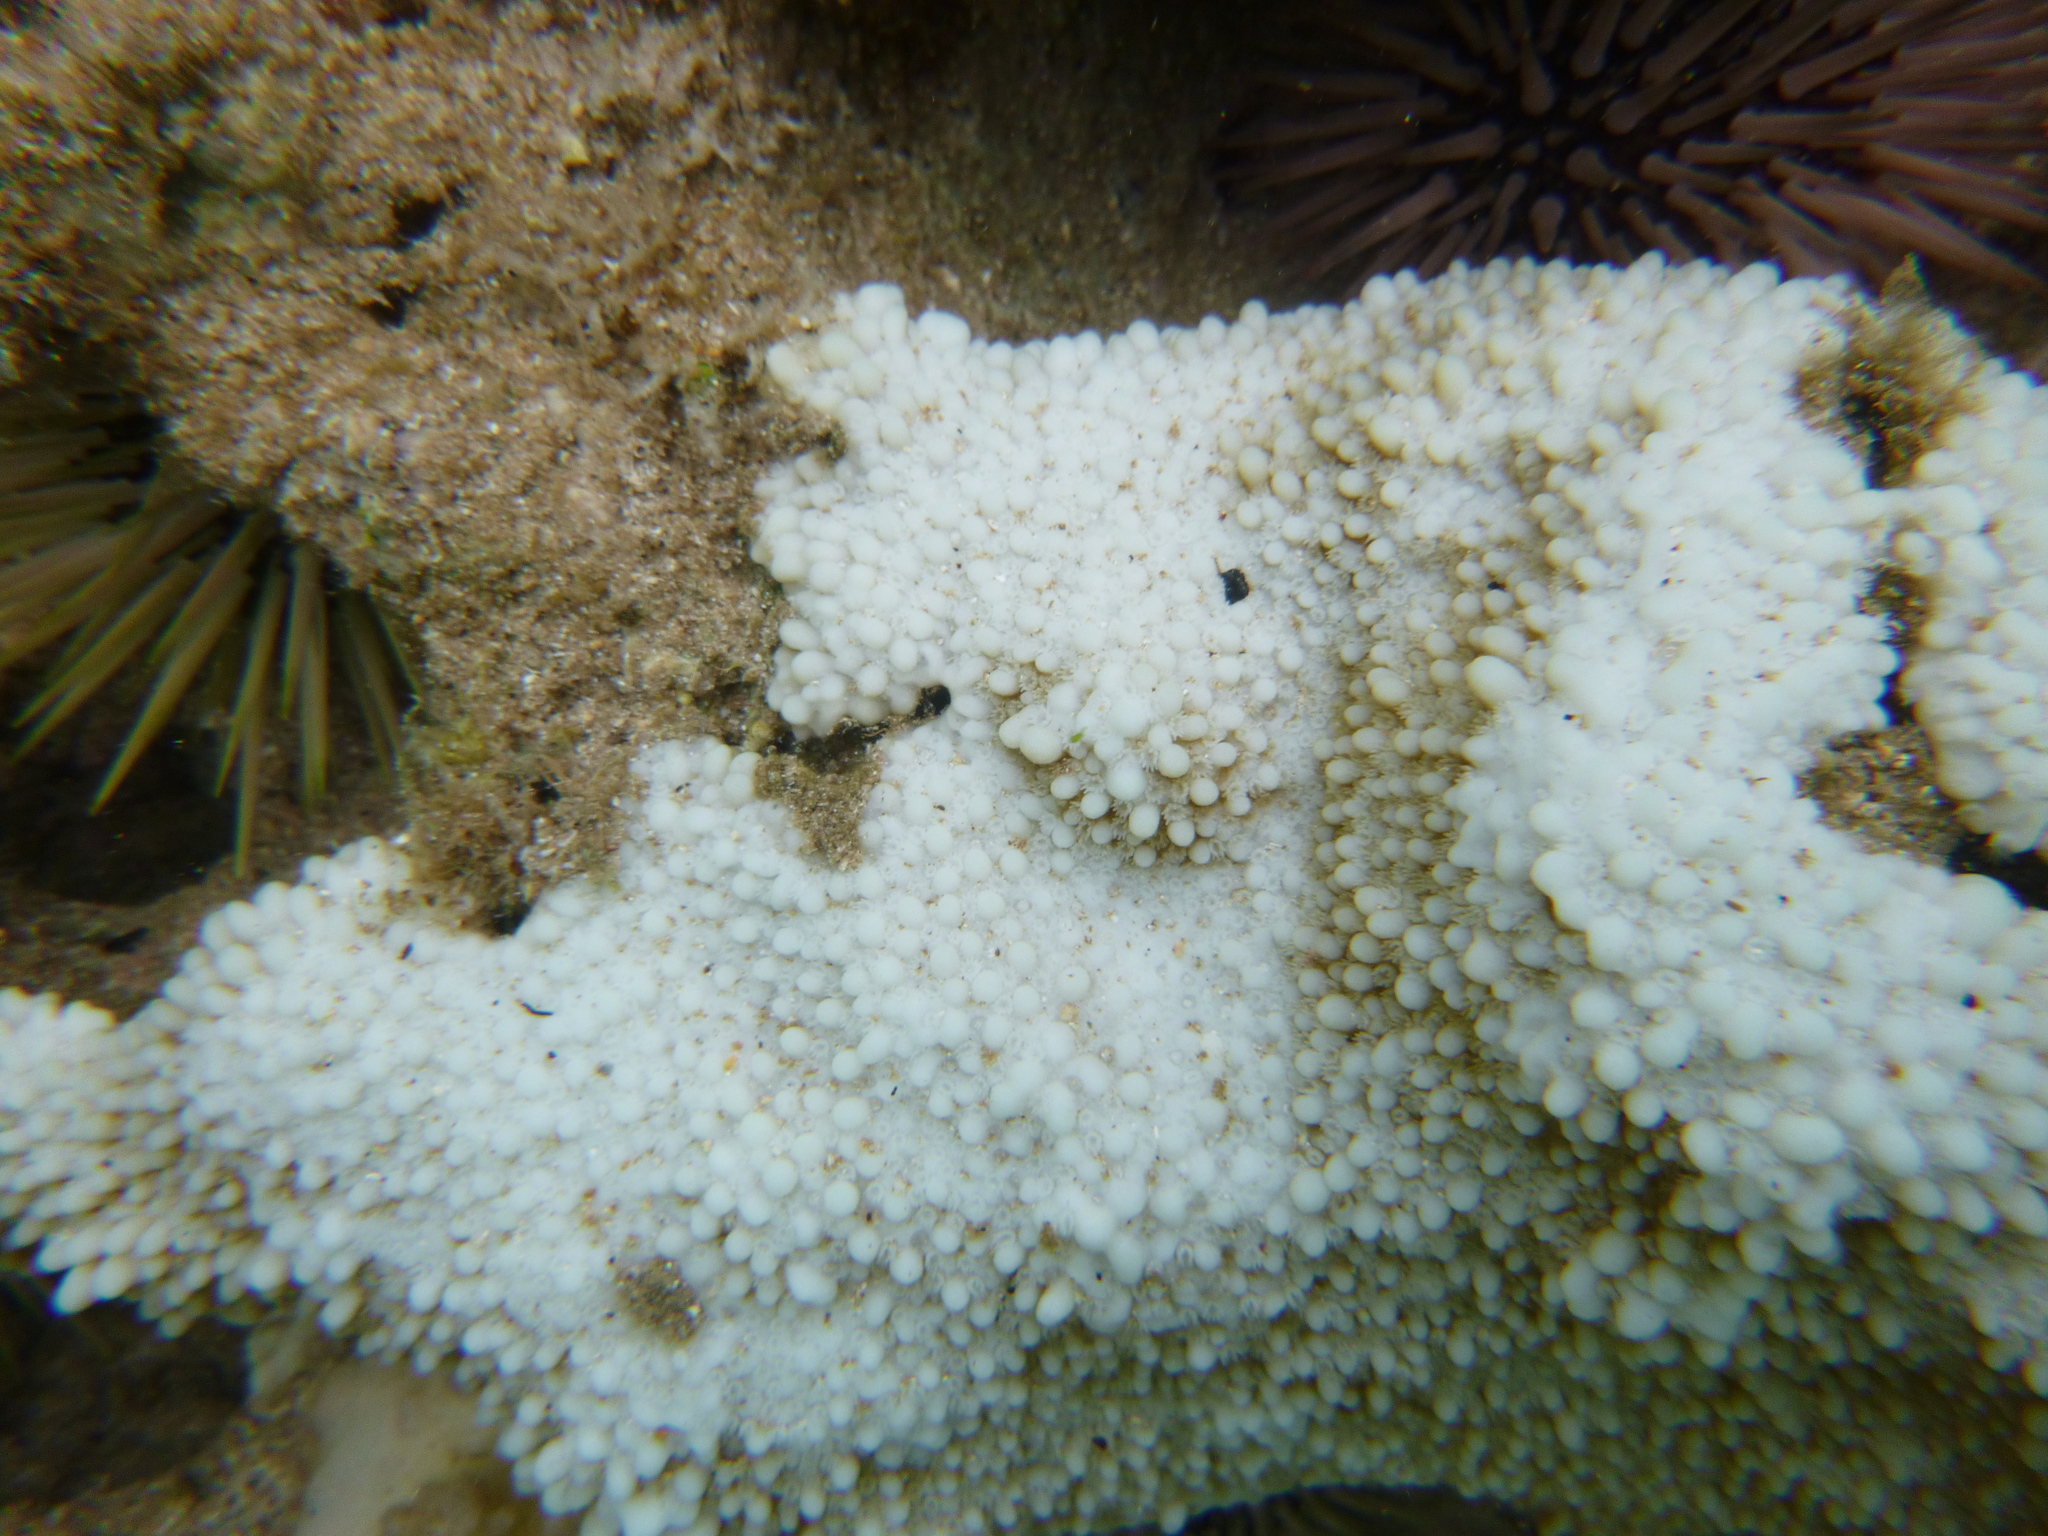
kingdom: Animalia
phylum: Cnidaria
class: Anthozoa
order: Scleractinia
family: Acroporidae
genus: Montipora
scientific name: Montipora capitata
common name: Pore coral
